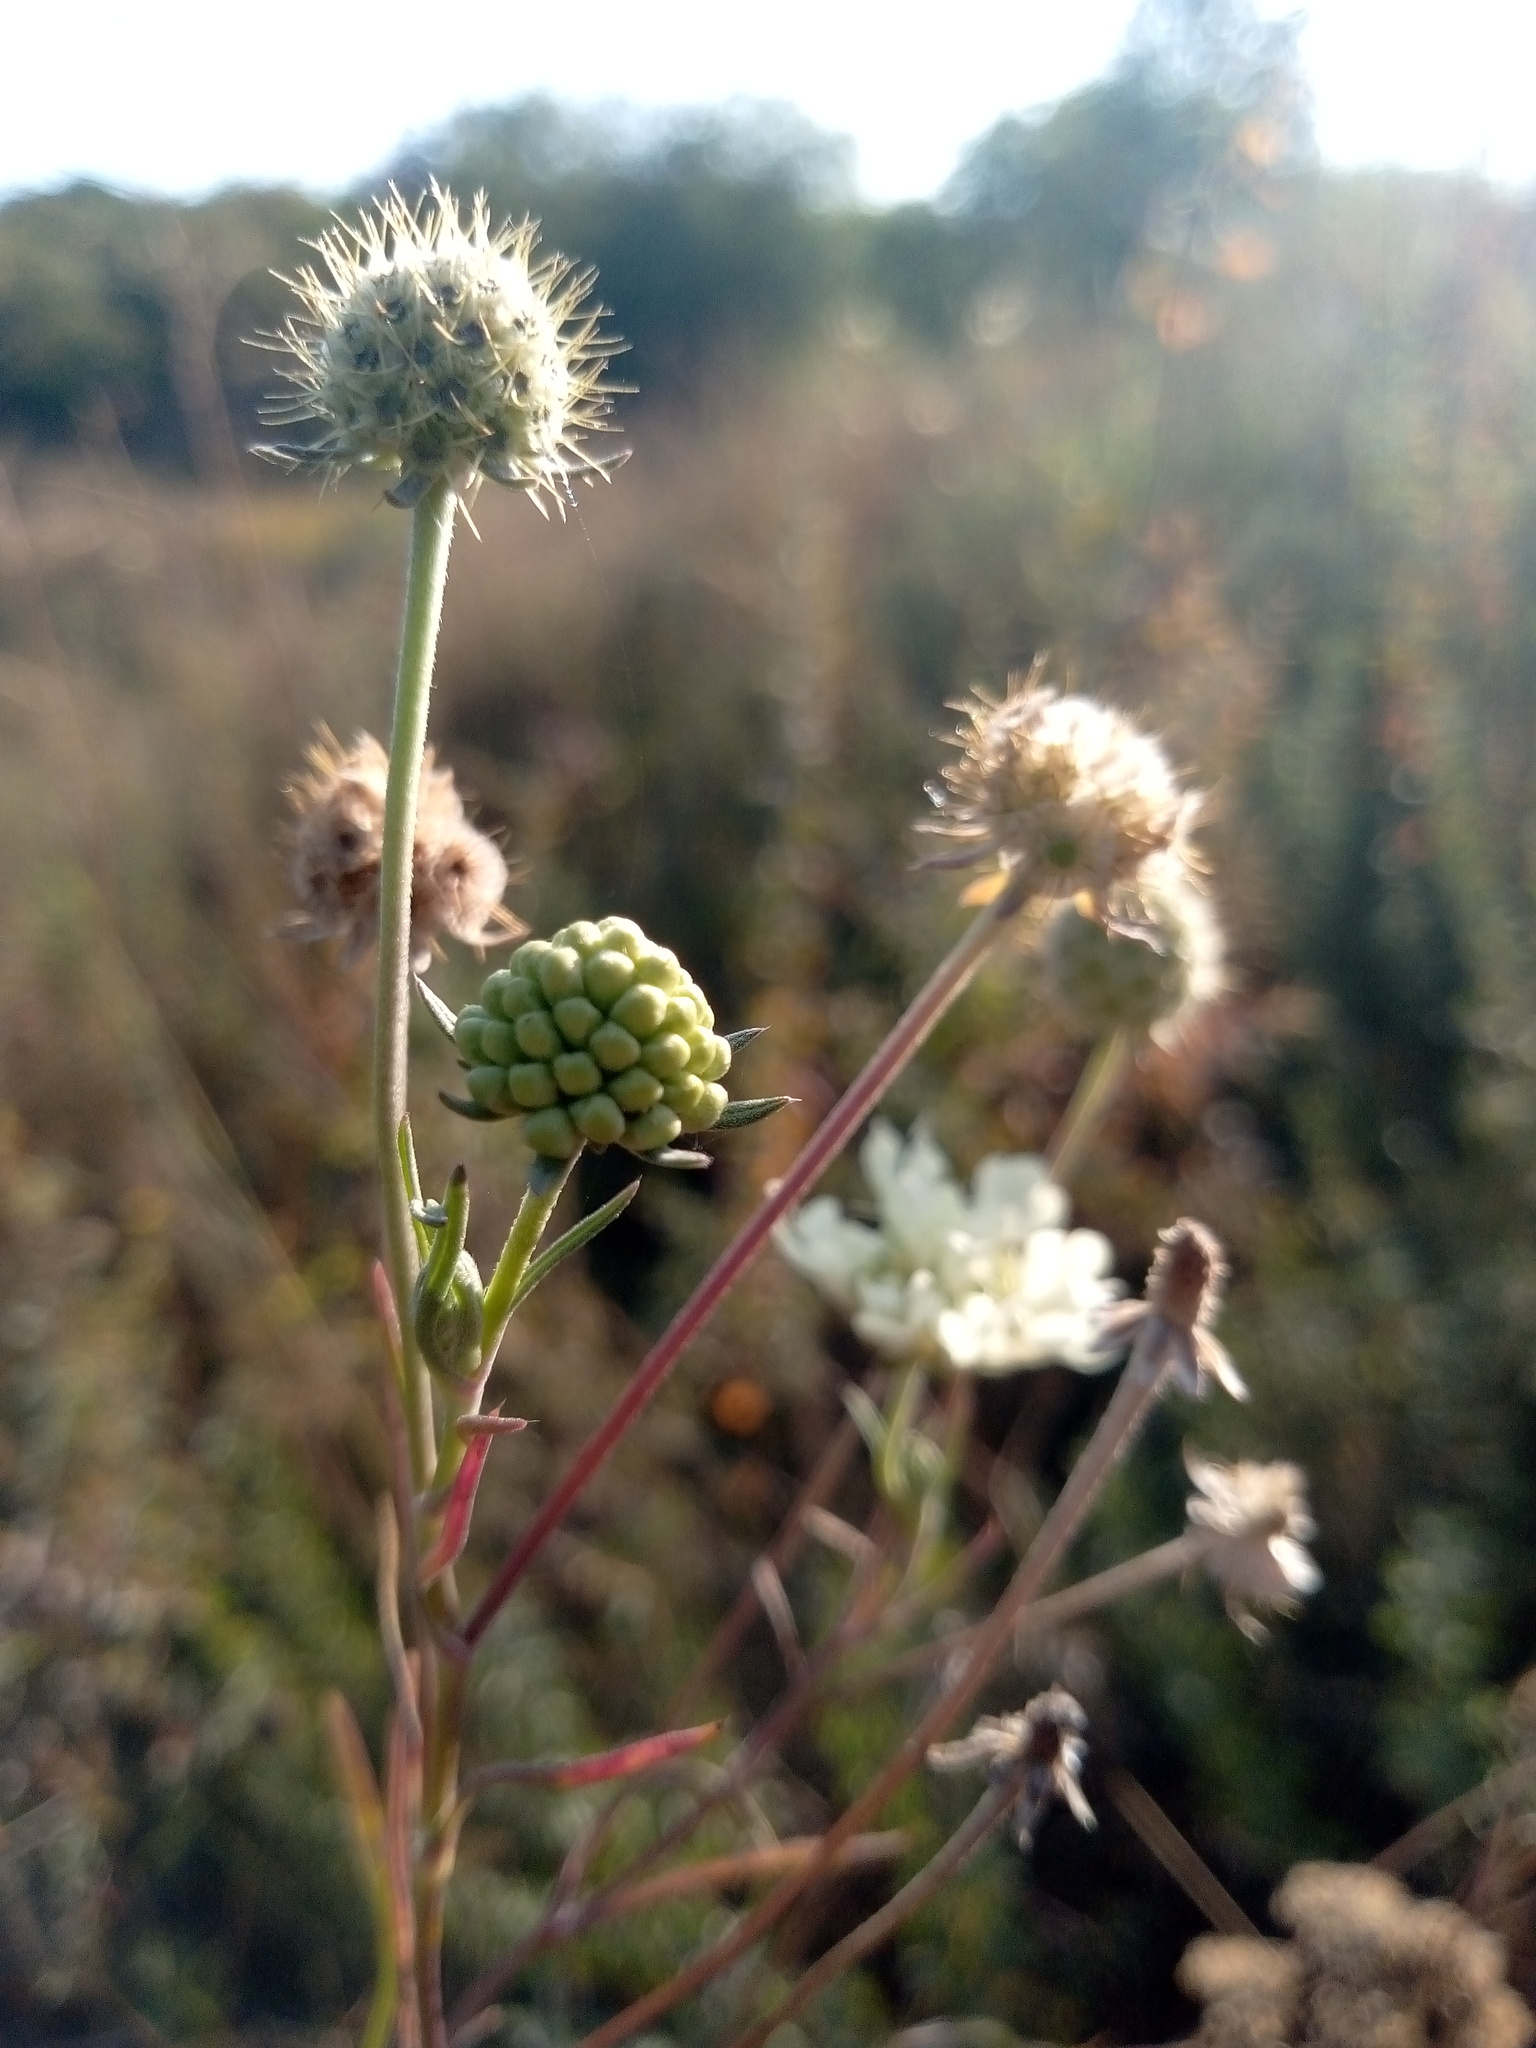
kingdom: Plantae
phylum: Tracheophyta
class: Magnoliopsida
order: Dipsacales
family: Caprifoliaceae
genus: Scabiosa
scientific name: Scabiosa ochroleuca
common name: Cream pincushions
